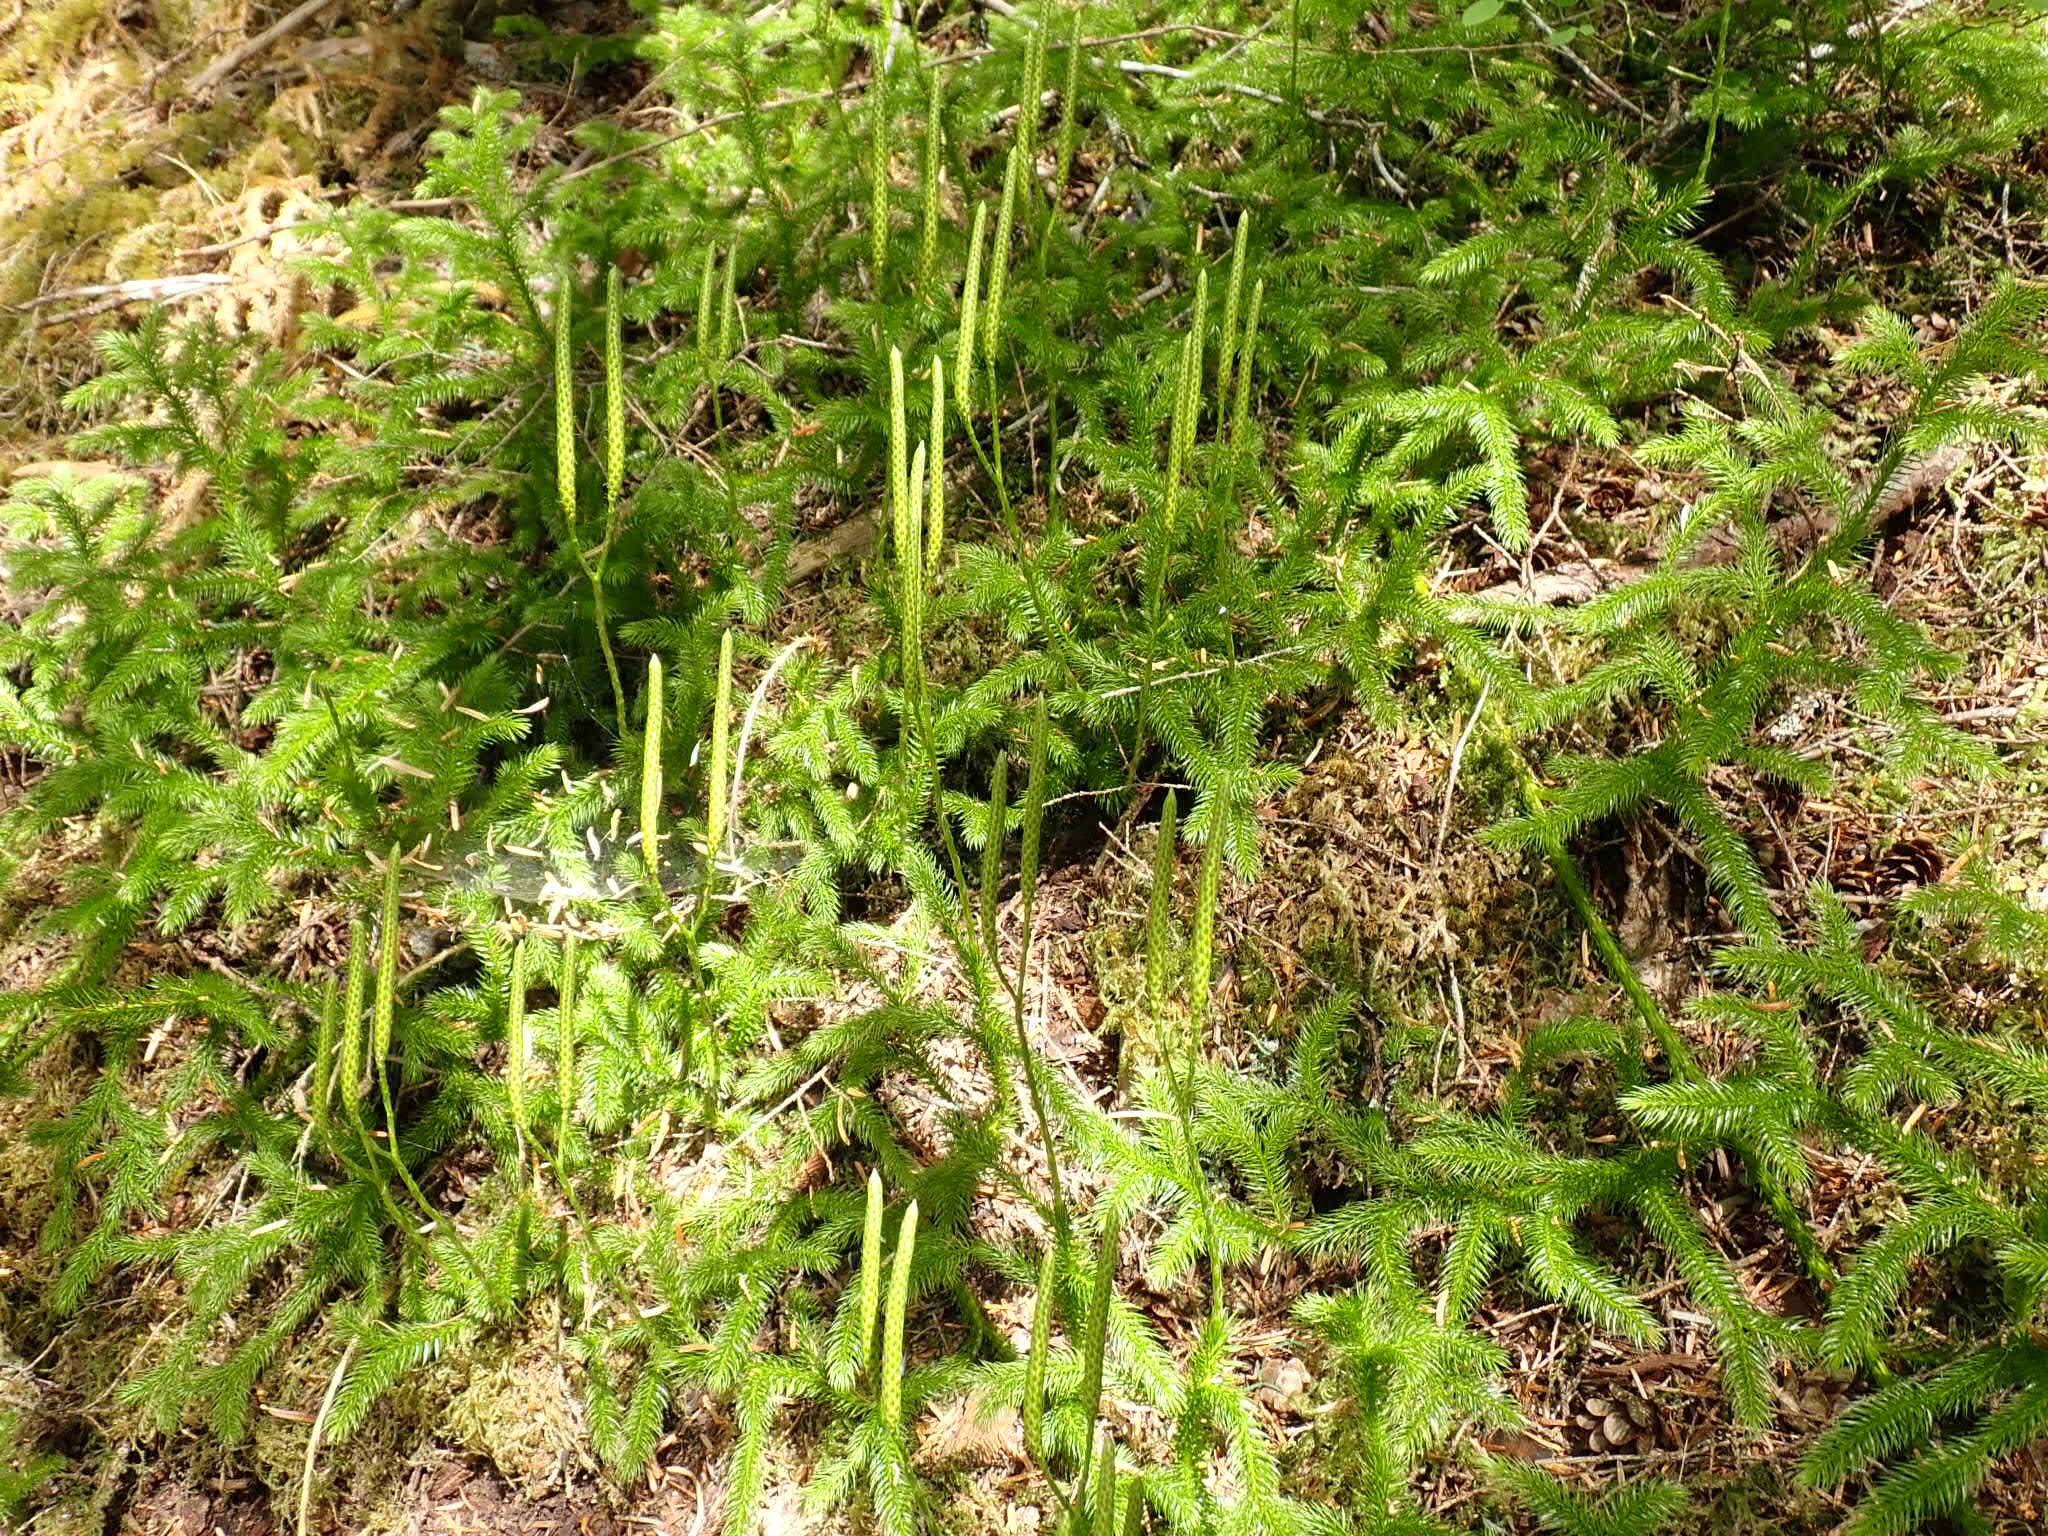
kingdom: Plantae
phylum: Tracheophyta
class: Lycopodiopsida
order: Lycopodiales
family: Lycopodiaceae
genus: Lycopodium
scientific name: Lycopodium clavatum
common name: Stag's-horn clubmoss
